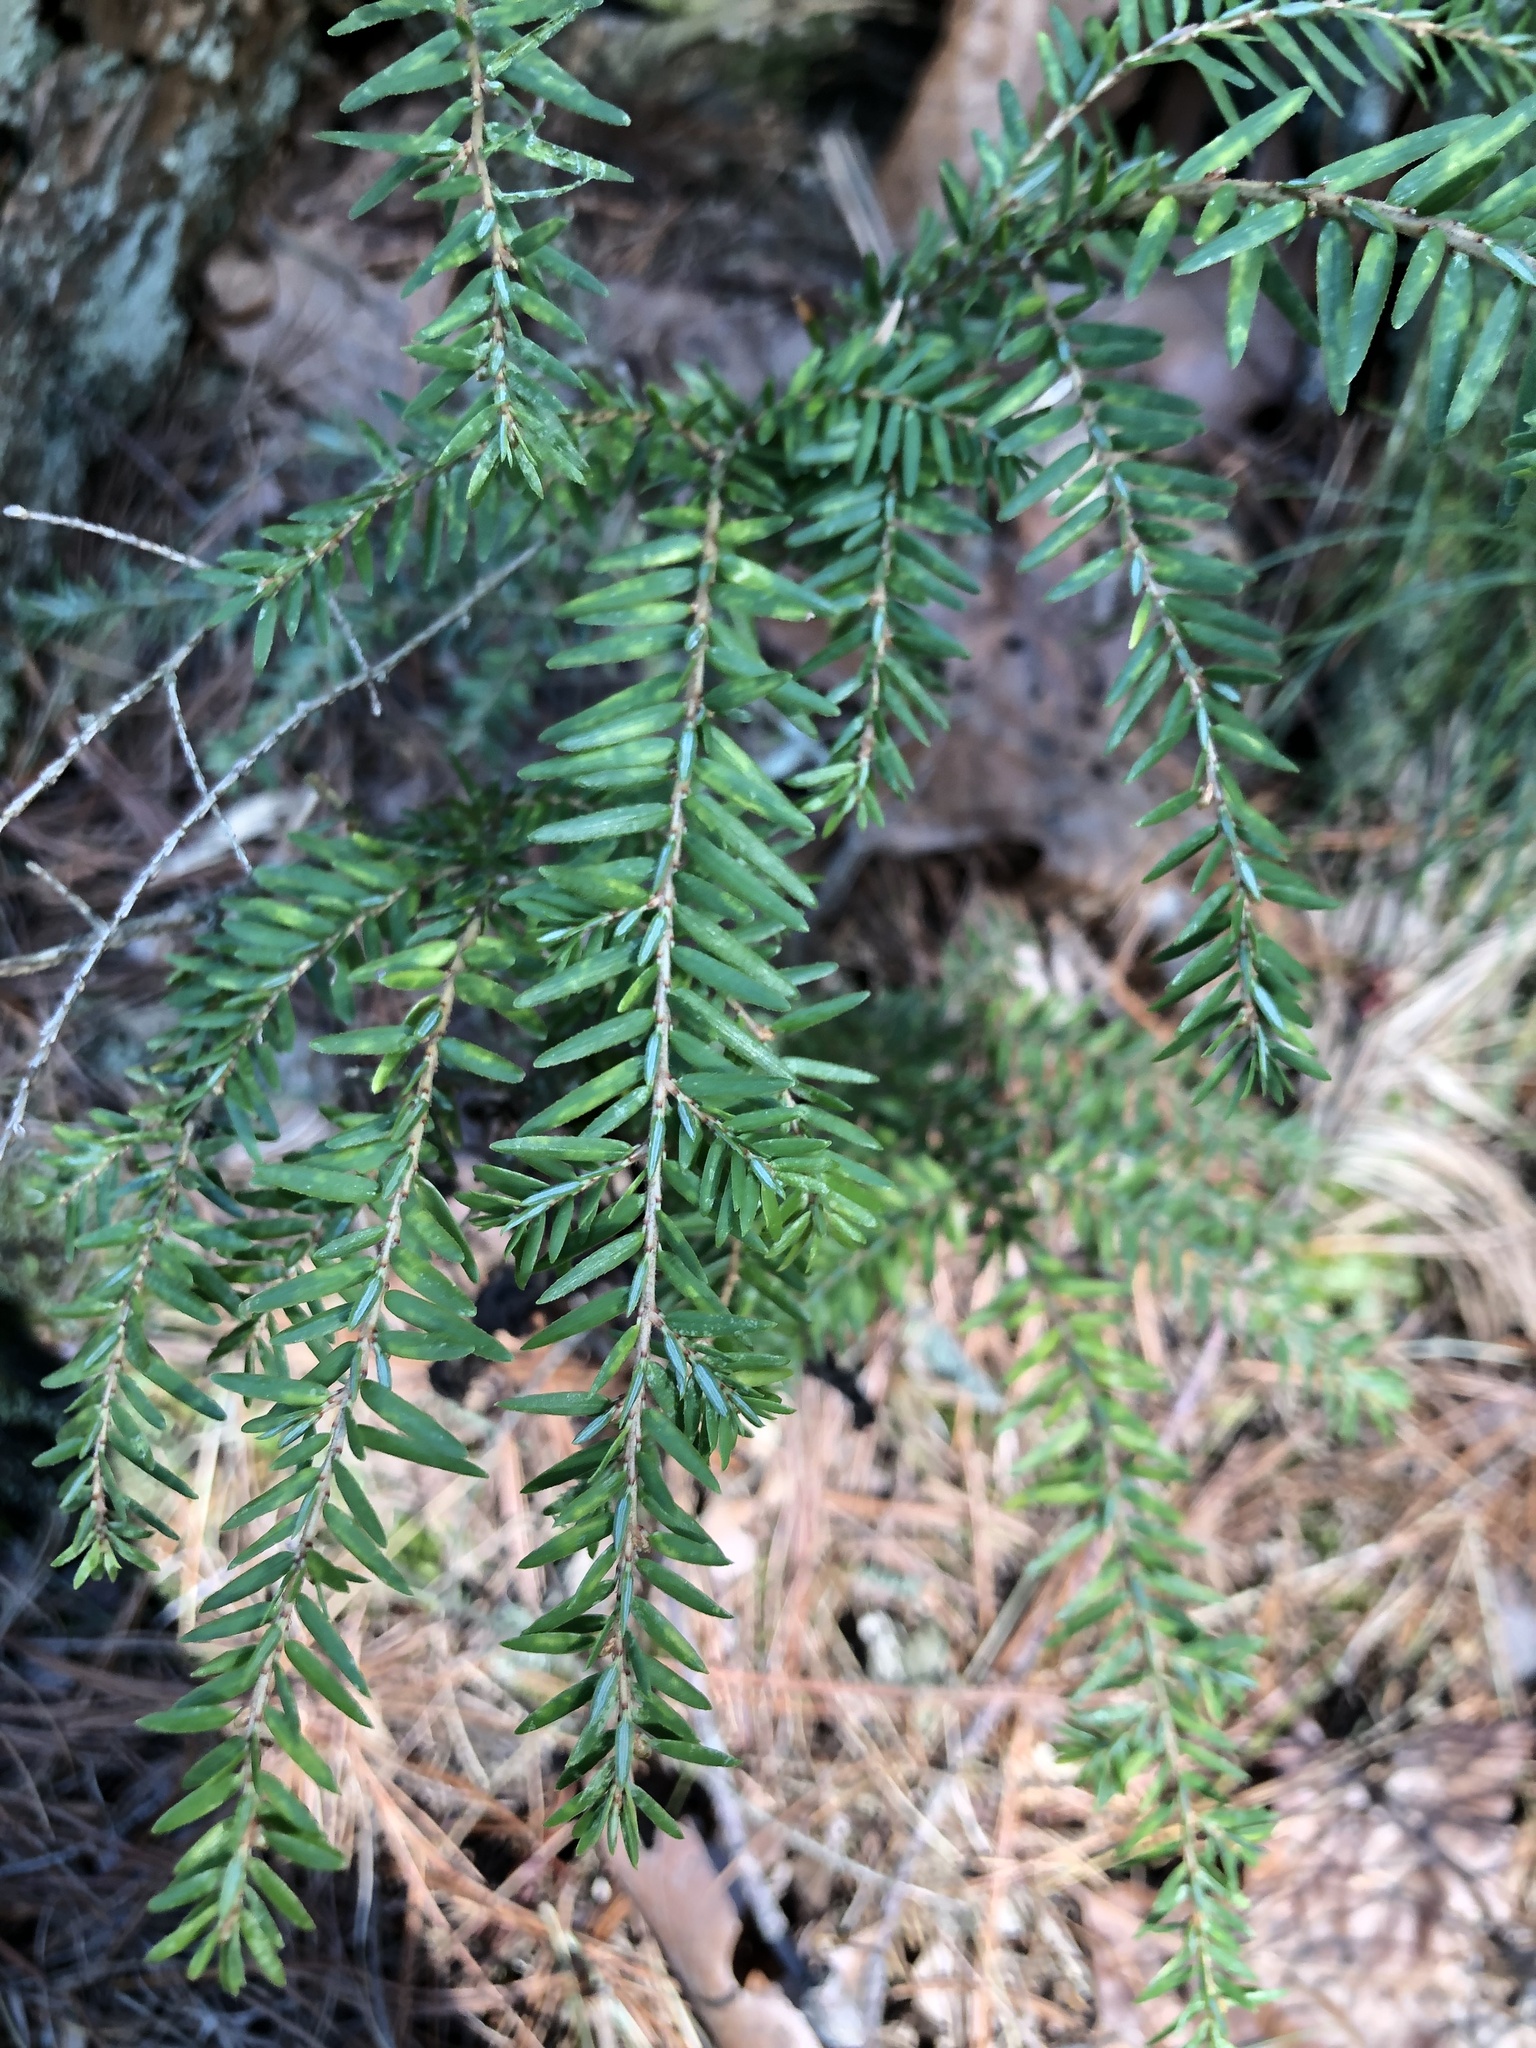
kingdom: Plantae
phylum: Tracheophyta
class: Pinopsida
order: Pinales
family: Pinaceae
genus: Tsuga
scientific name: Tsuga canadensis
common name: Eastern hemlock
